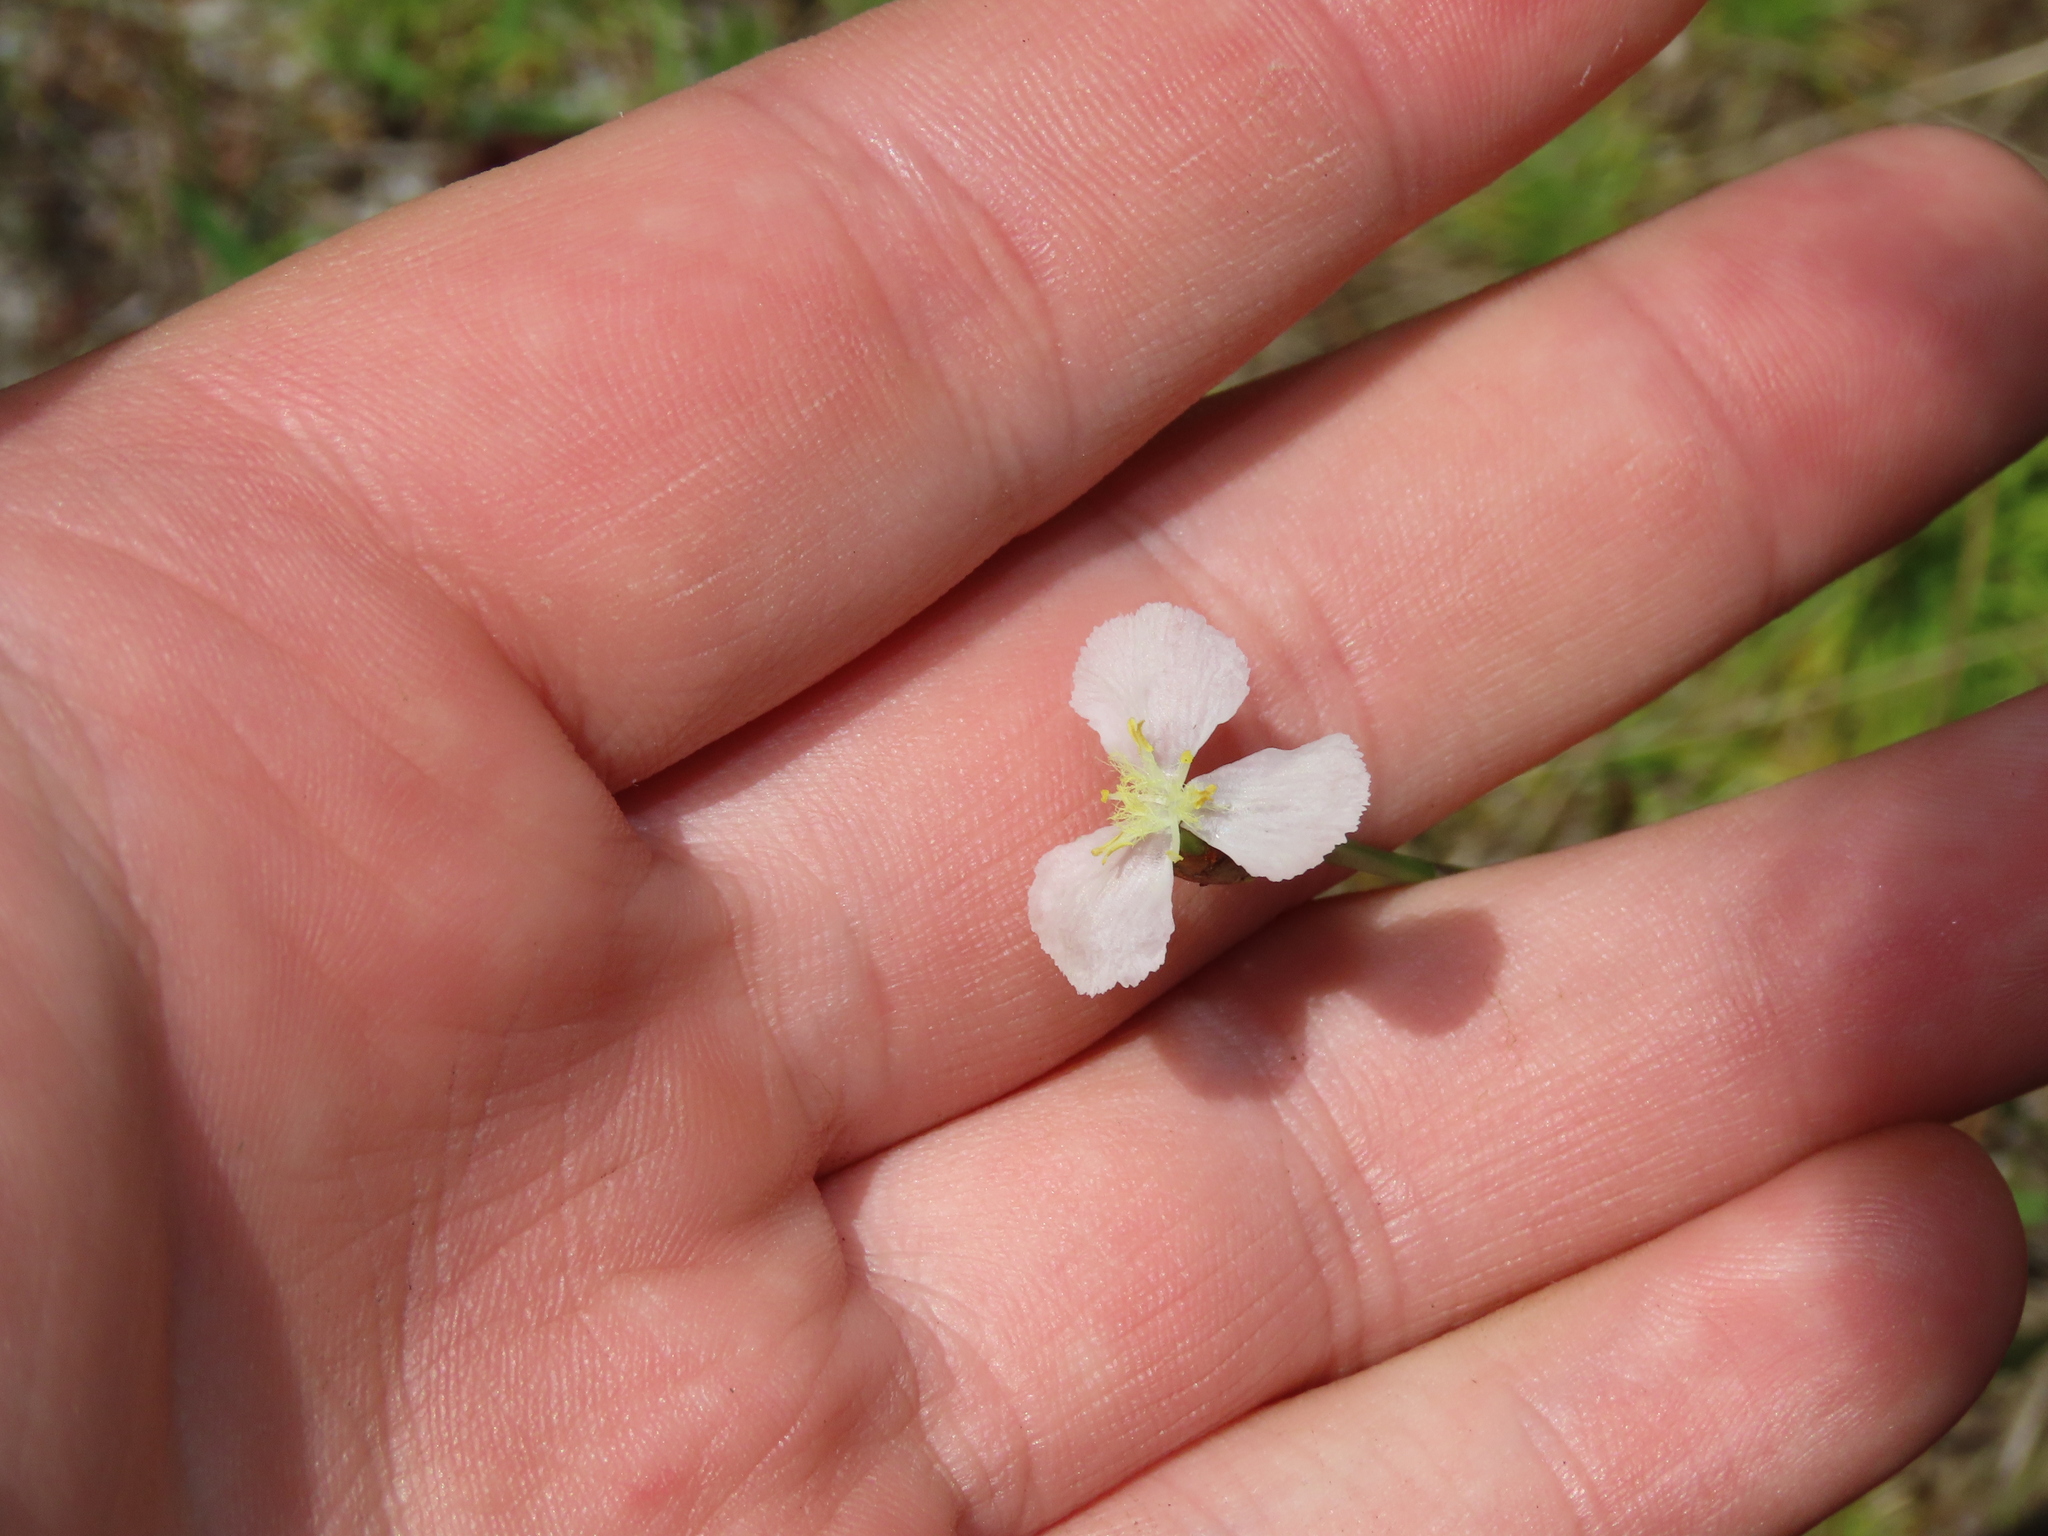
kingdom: Plantae
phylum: Tracheophyta
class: Liliopsida
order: Poales
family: Xyridaceae
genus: Xyris
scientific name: Xyris caroliniana
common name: Carolina yellow-eyed-grass
